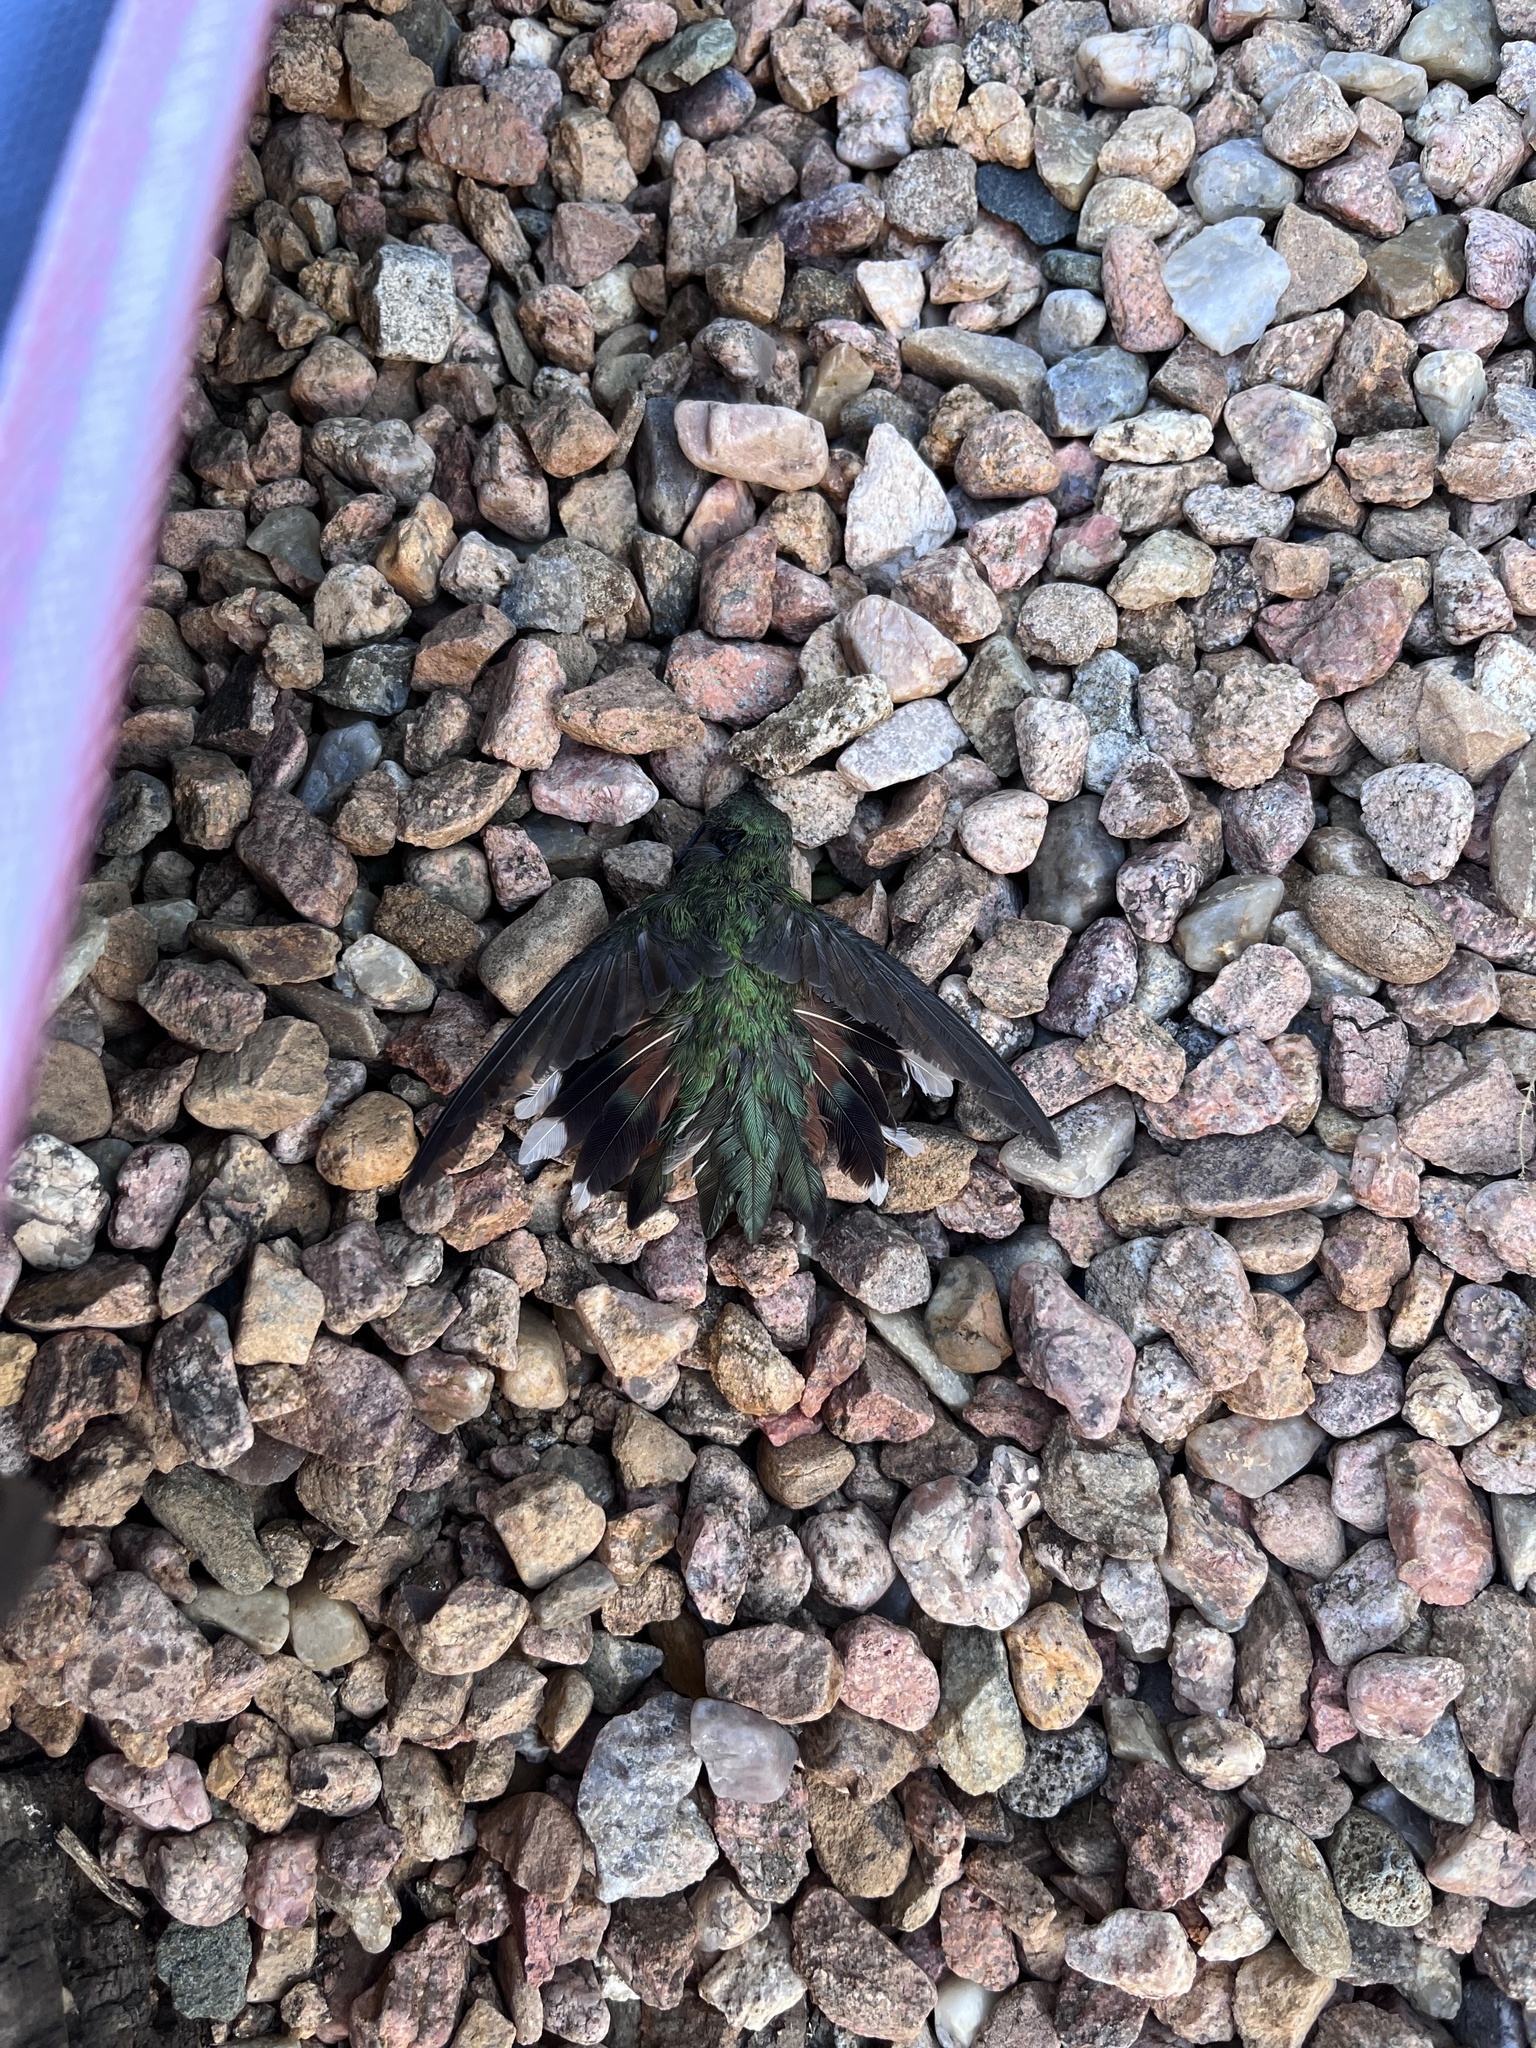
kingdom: Animalia
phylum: Chordata
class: Aves
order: Apodiformes
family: Trochilidae
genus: Selasphorus
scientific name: Selasphorus platycercus
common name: Broad-tailed hummingbird
